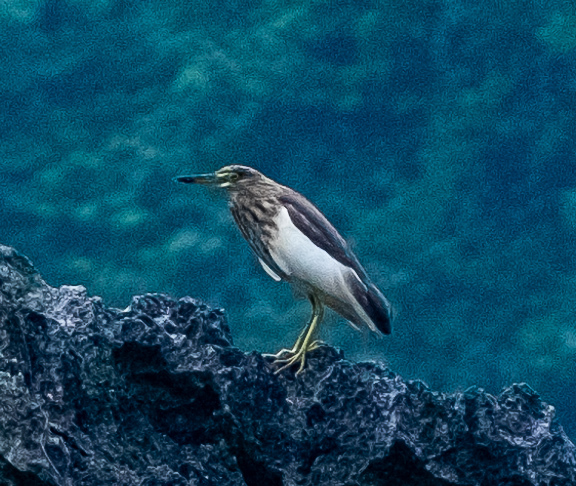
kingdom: Animalia
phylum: Chordata
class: Aves
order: Pelecaniformes
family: Ardeidae
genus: Ardeola
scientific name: Ardeola bacchus
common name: Chinese pond heron
